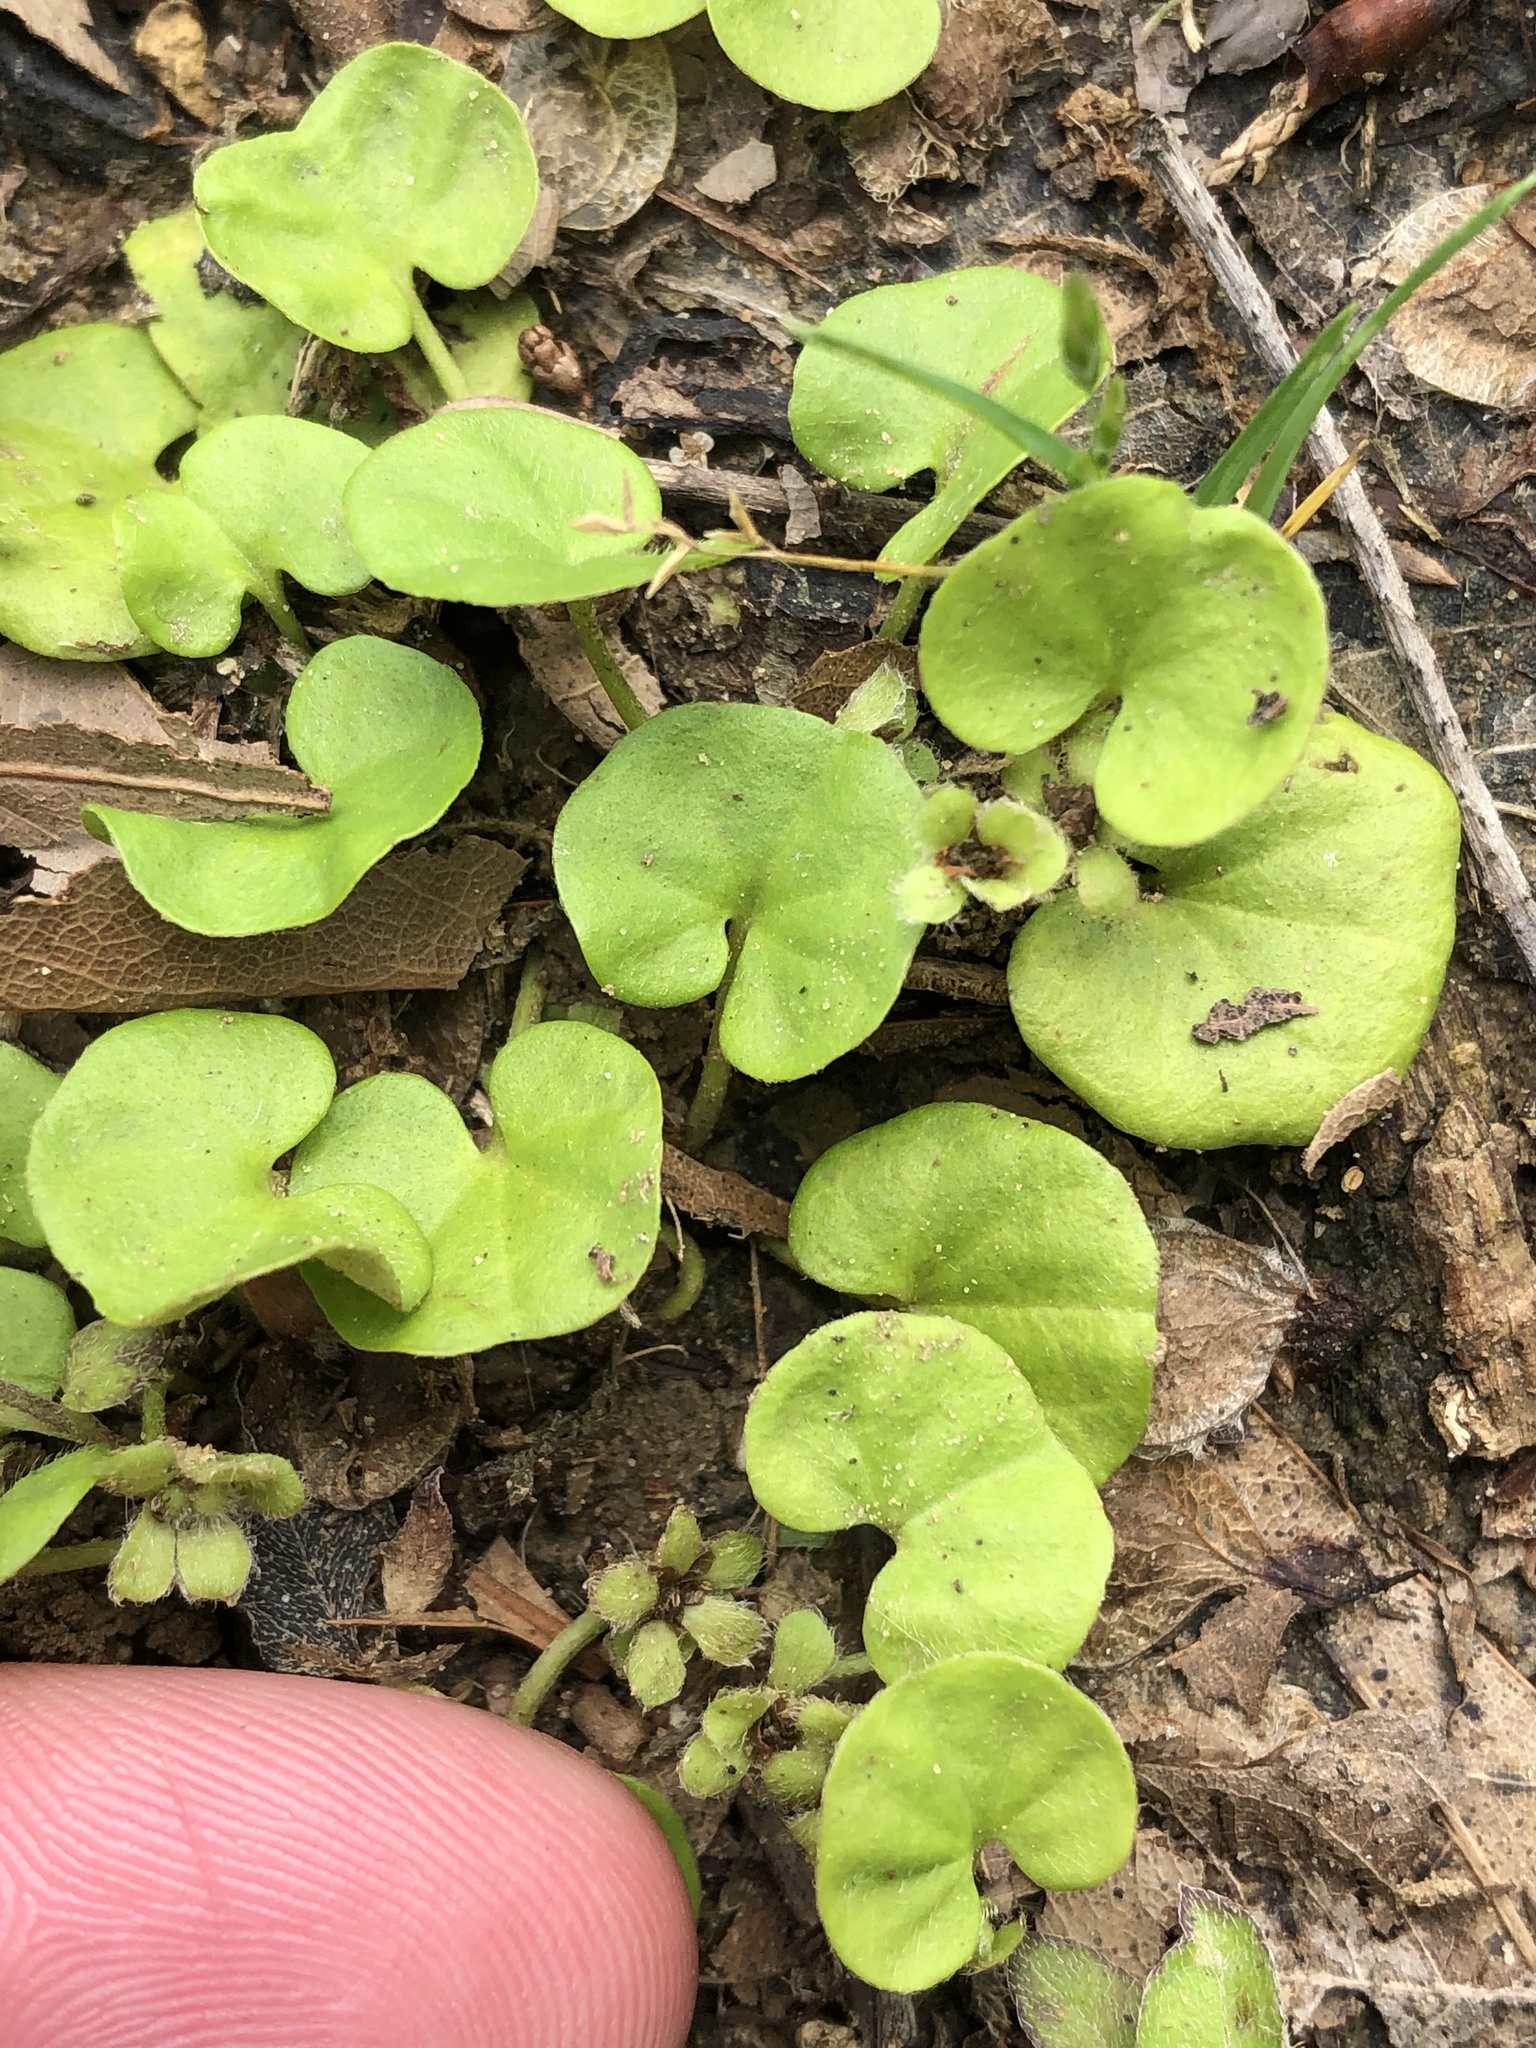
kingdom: Plantae
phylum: Tracheophyta
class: Magnoliopsida
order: Solanales
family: Convolvulaceae
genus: Dichondra
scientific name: Dichondra carolinensis
